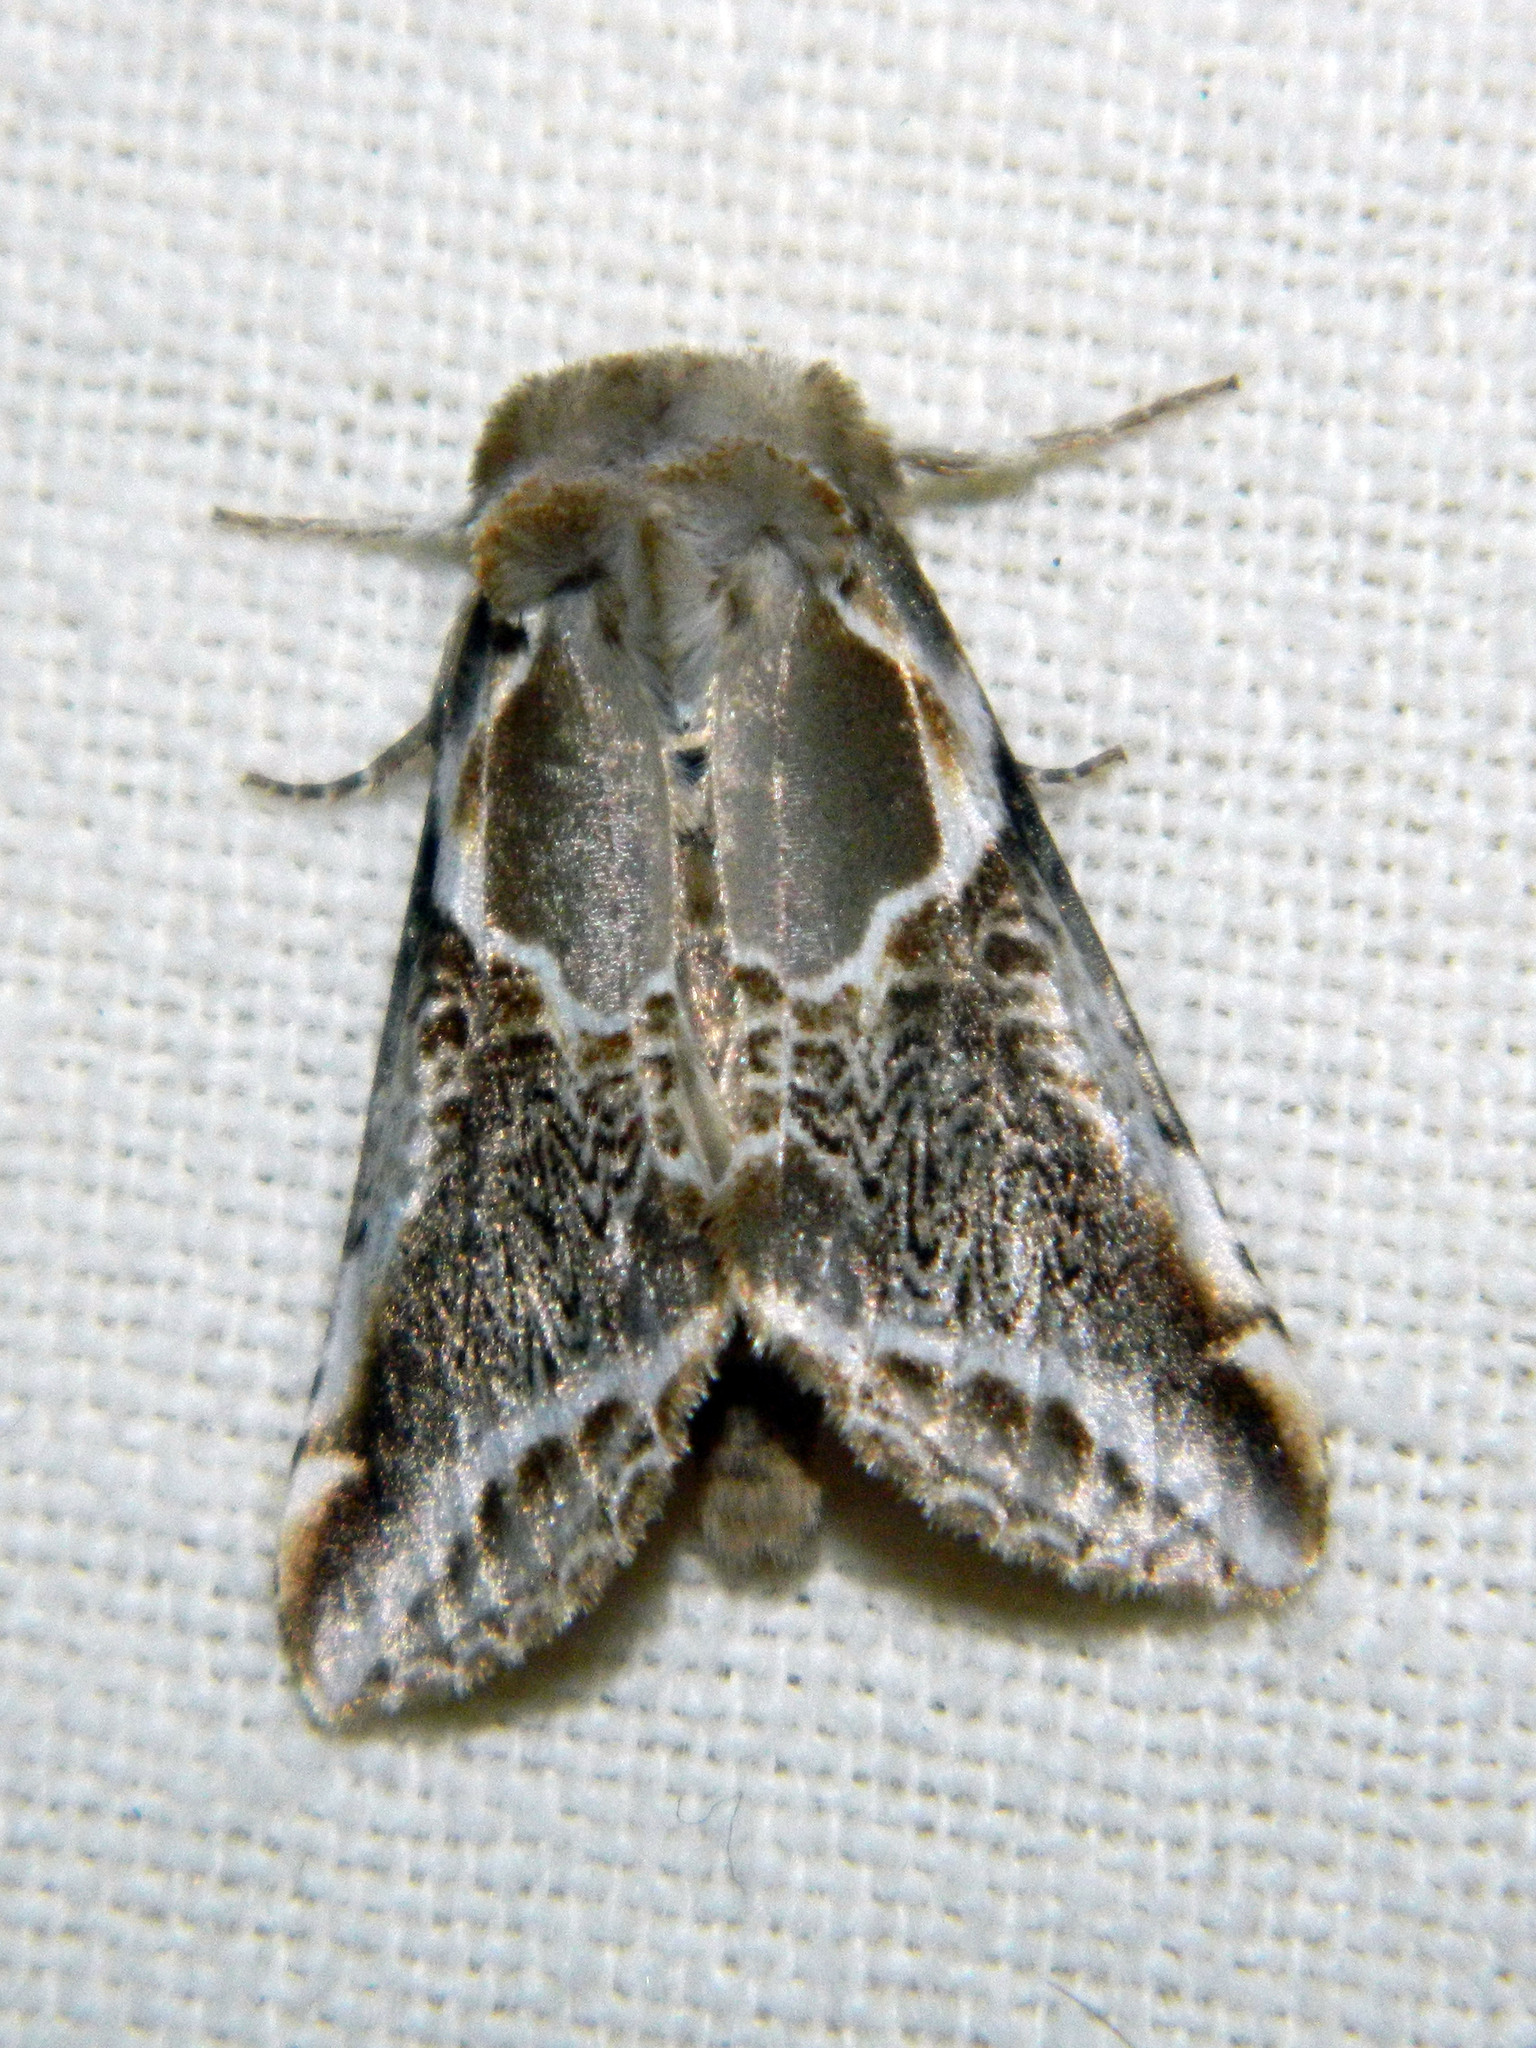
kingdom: Animalia
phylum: Arthropoda
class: Insecta
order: Lepidoptera
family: Drepanidae
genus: Habrosyne
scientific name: Habrosyne scripta
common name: Lettered habrosyne moth
